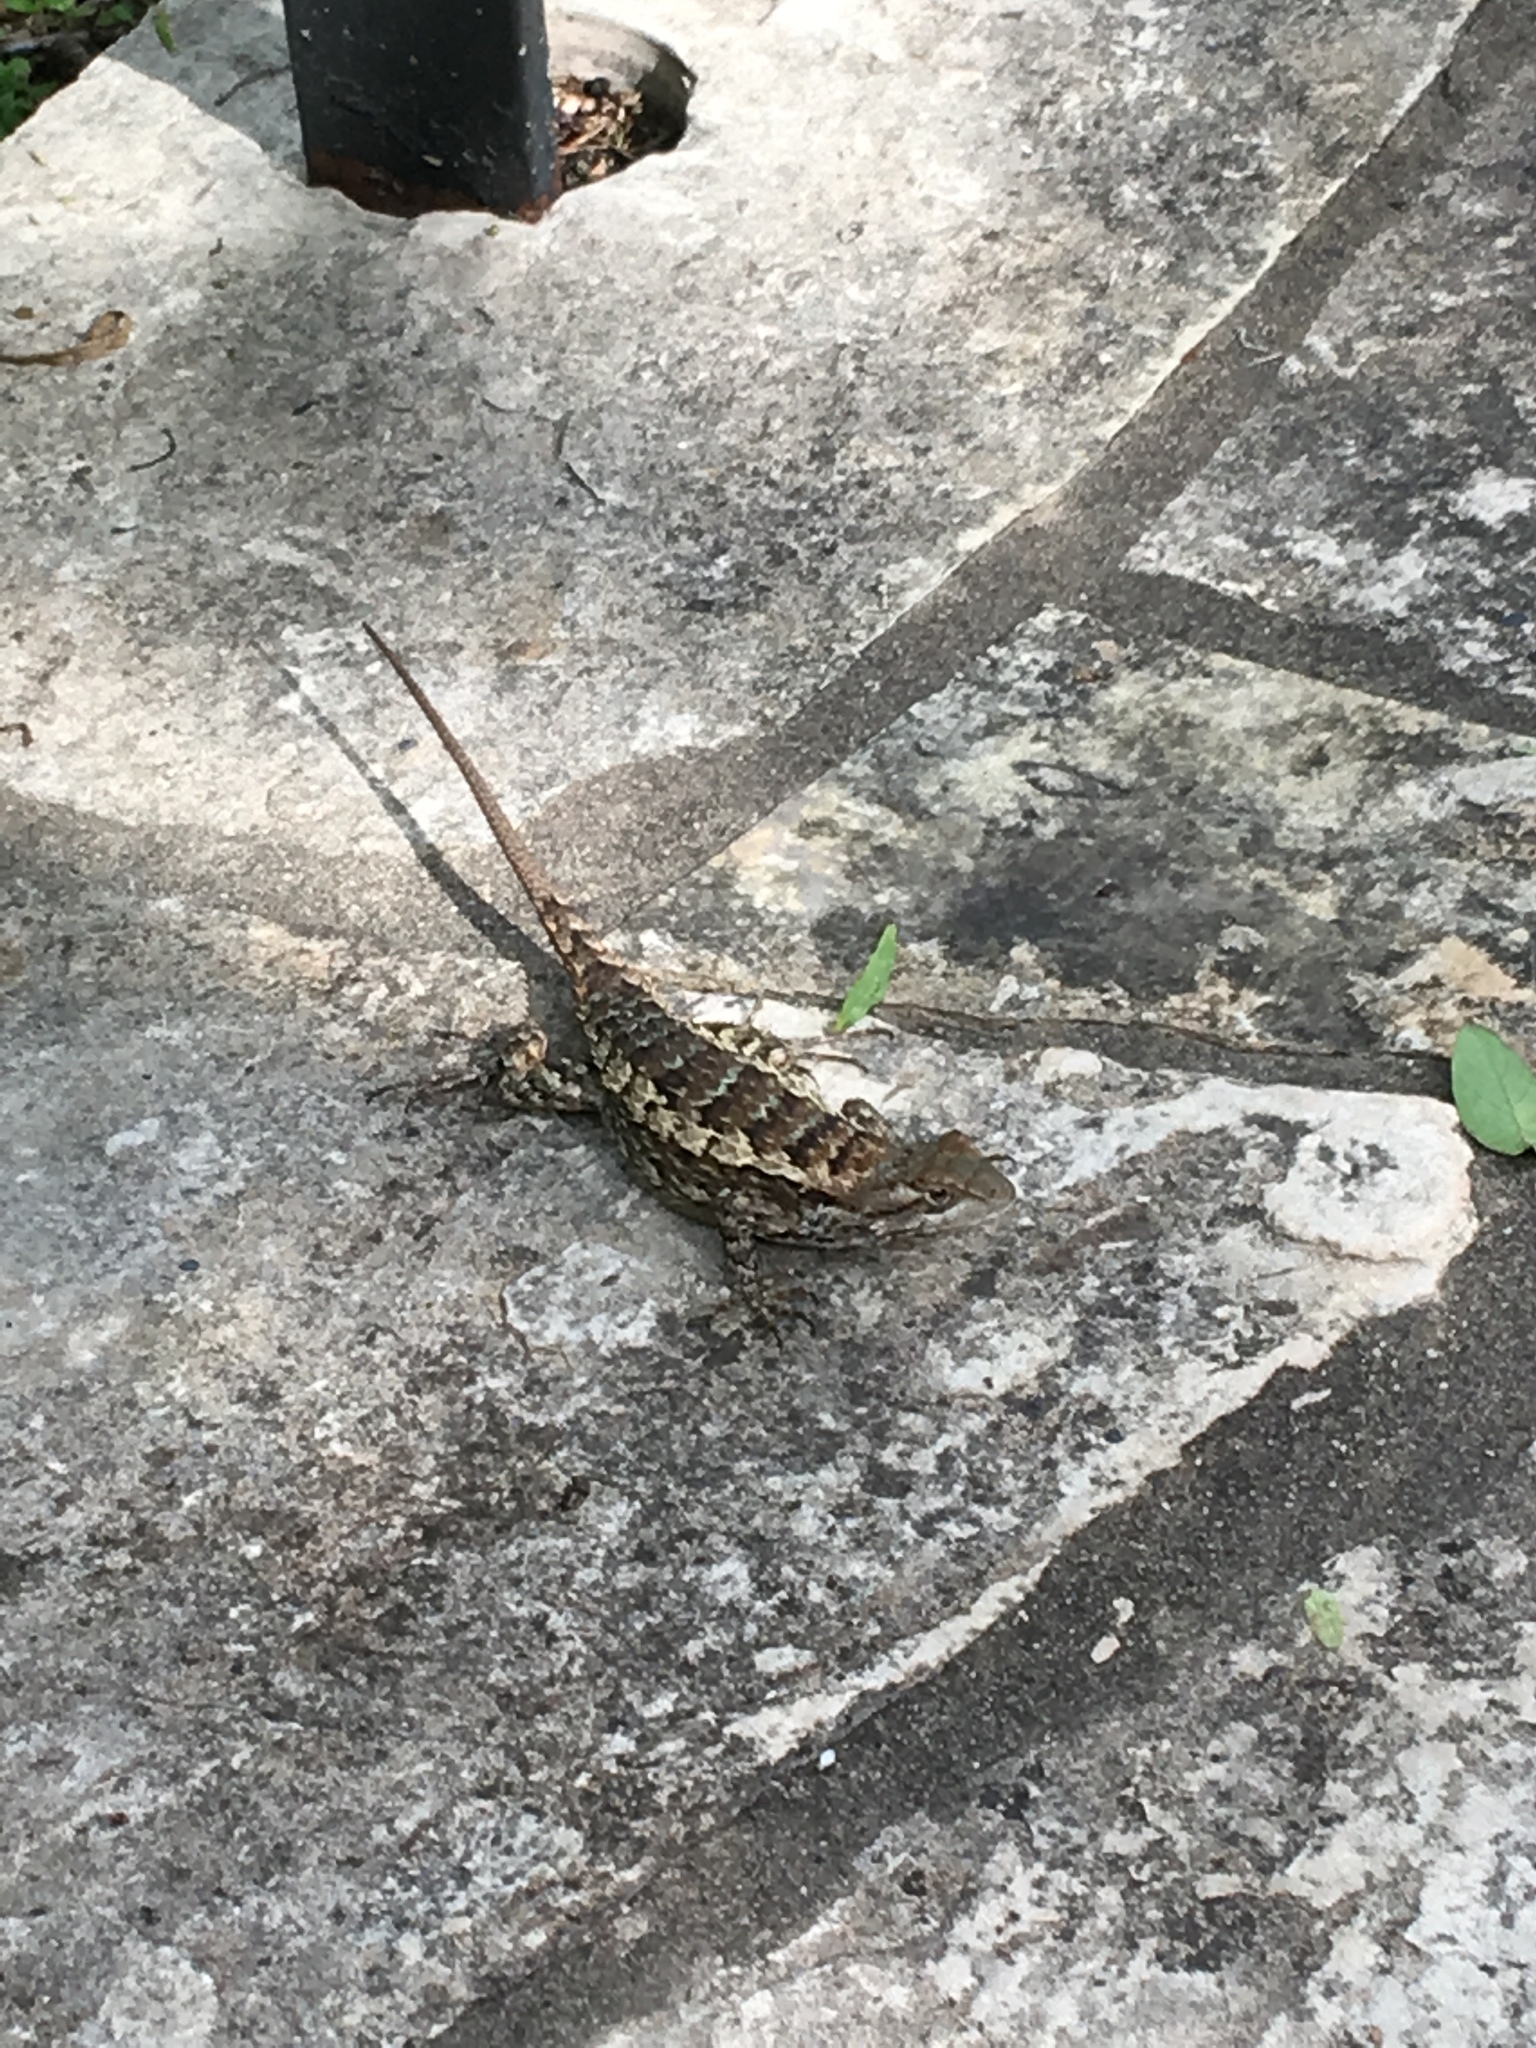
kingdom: Animalia
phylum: Chordata
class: Squamata
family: Phrynosomatidae
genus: Sceloporus
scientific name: Sceloporus olivaceus
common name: Texas spiny lizard
